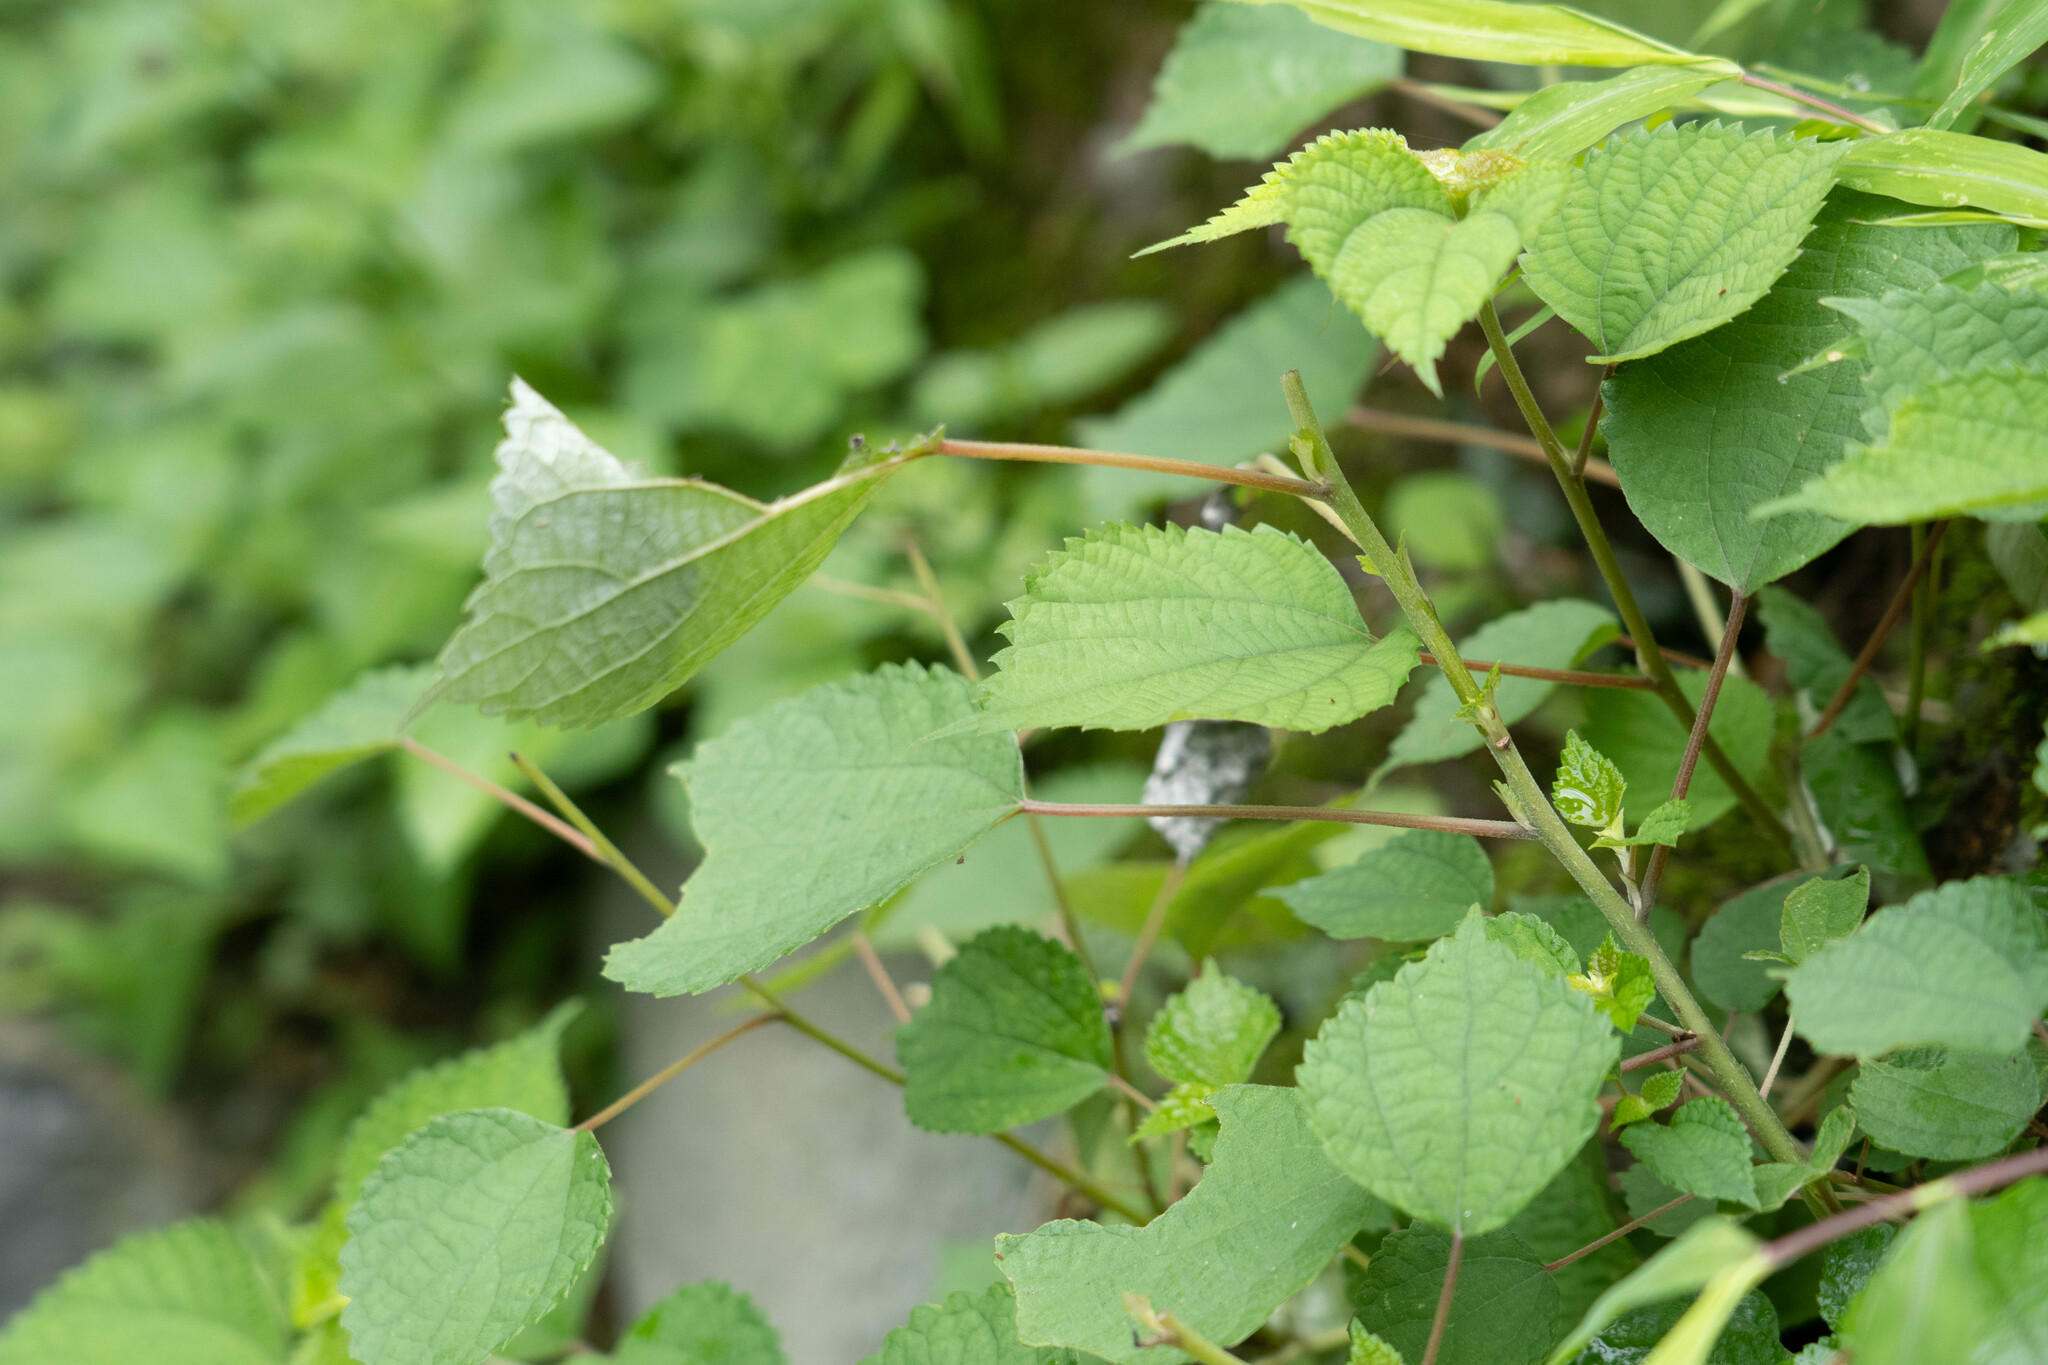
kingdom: Plantae
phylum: Tracheophyta
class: Magnoliopsida
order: Rosales
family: Urticaceae
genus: Boehmeria
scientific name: Boehmeria nivea
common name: Ramie chinese grass
